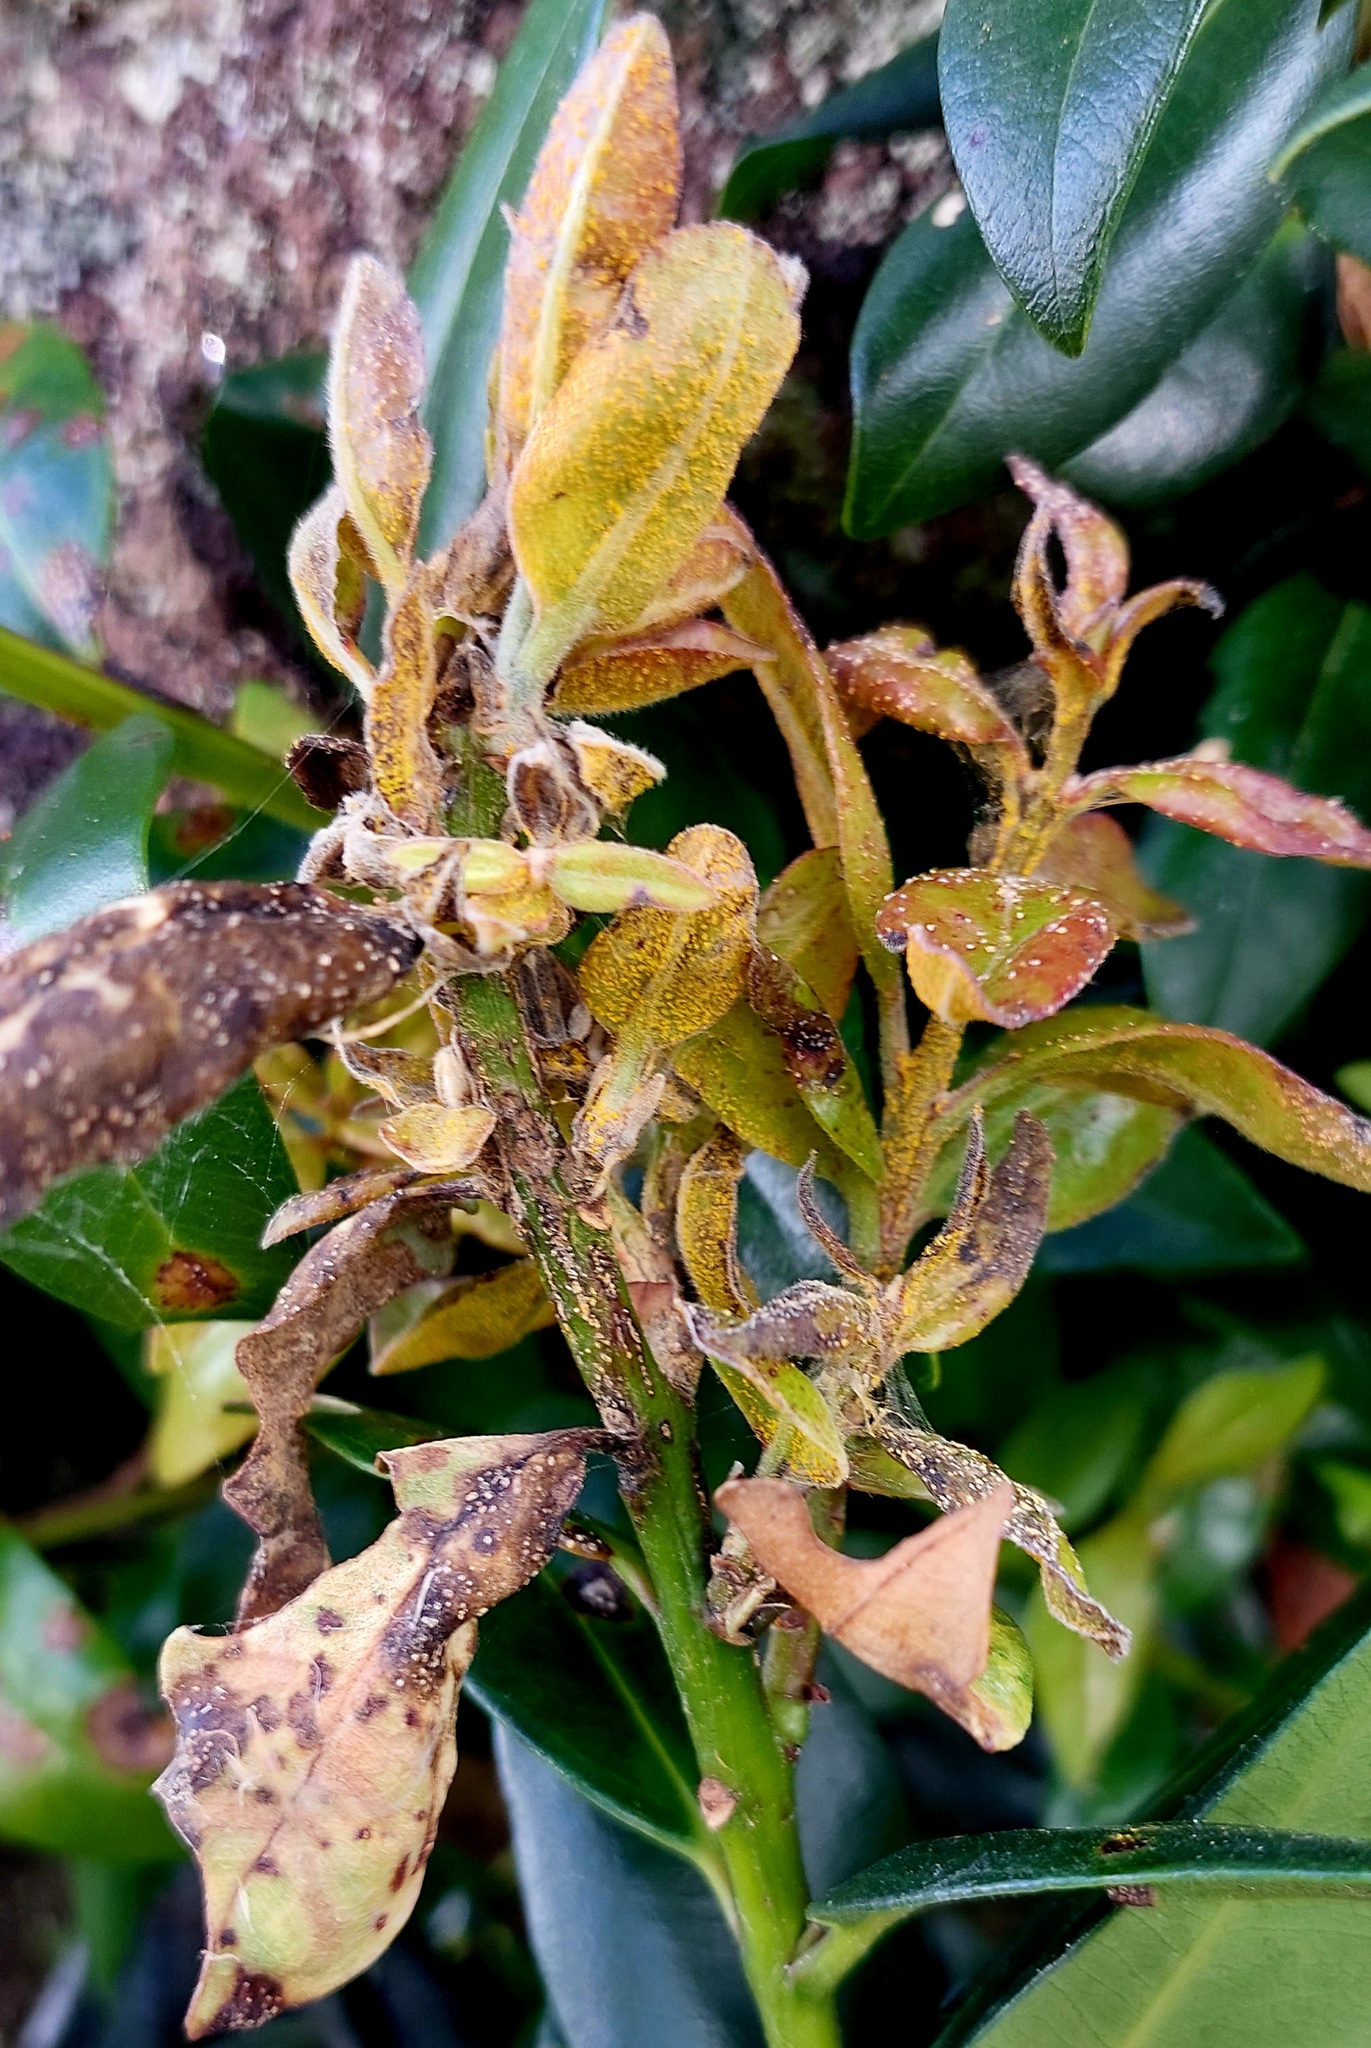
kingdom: Fungi
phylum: Basidiomycota
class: Pucciniomycetes
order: Pucciniales
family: Sphaerophragmiaceae
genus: Austropuccinia
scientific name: Austropuccinia psidii
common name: Myrtle rust
